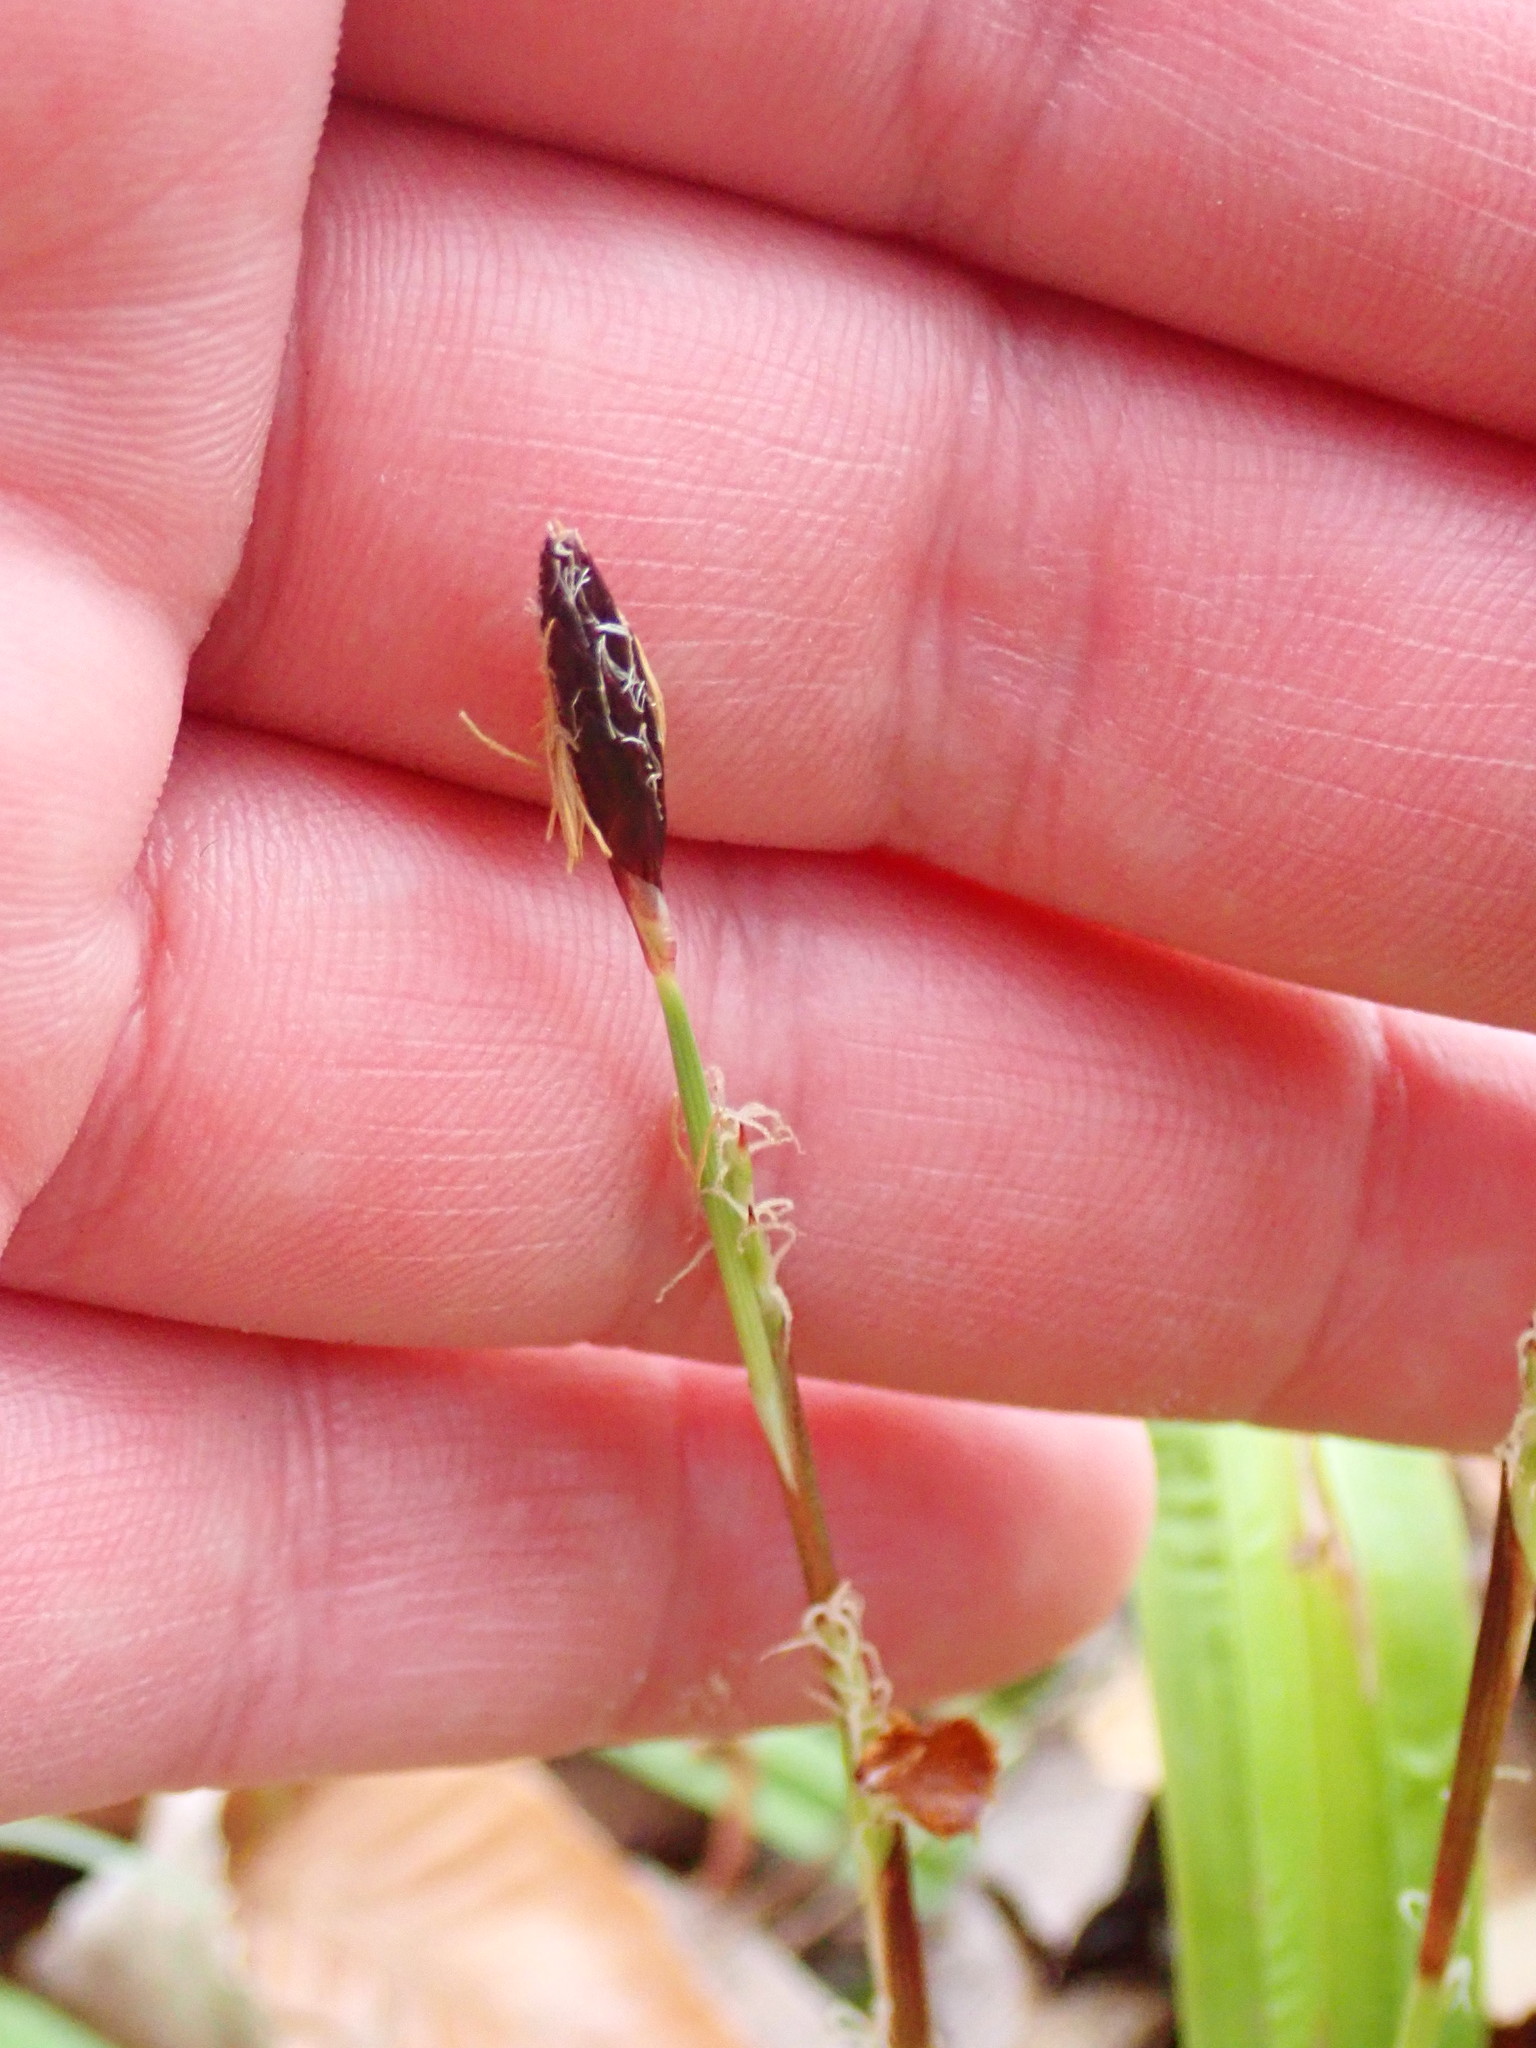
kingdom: Plantae
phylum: Tracheophyta
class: Liliopsida
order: Poales
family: Cyperaceae
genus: Carex
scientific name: Carex plantaginea
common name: Plantain-leaved sedge
